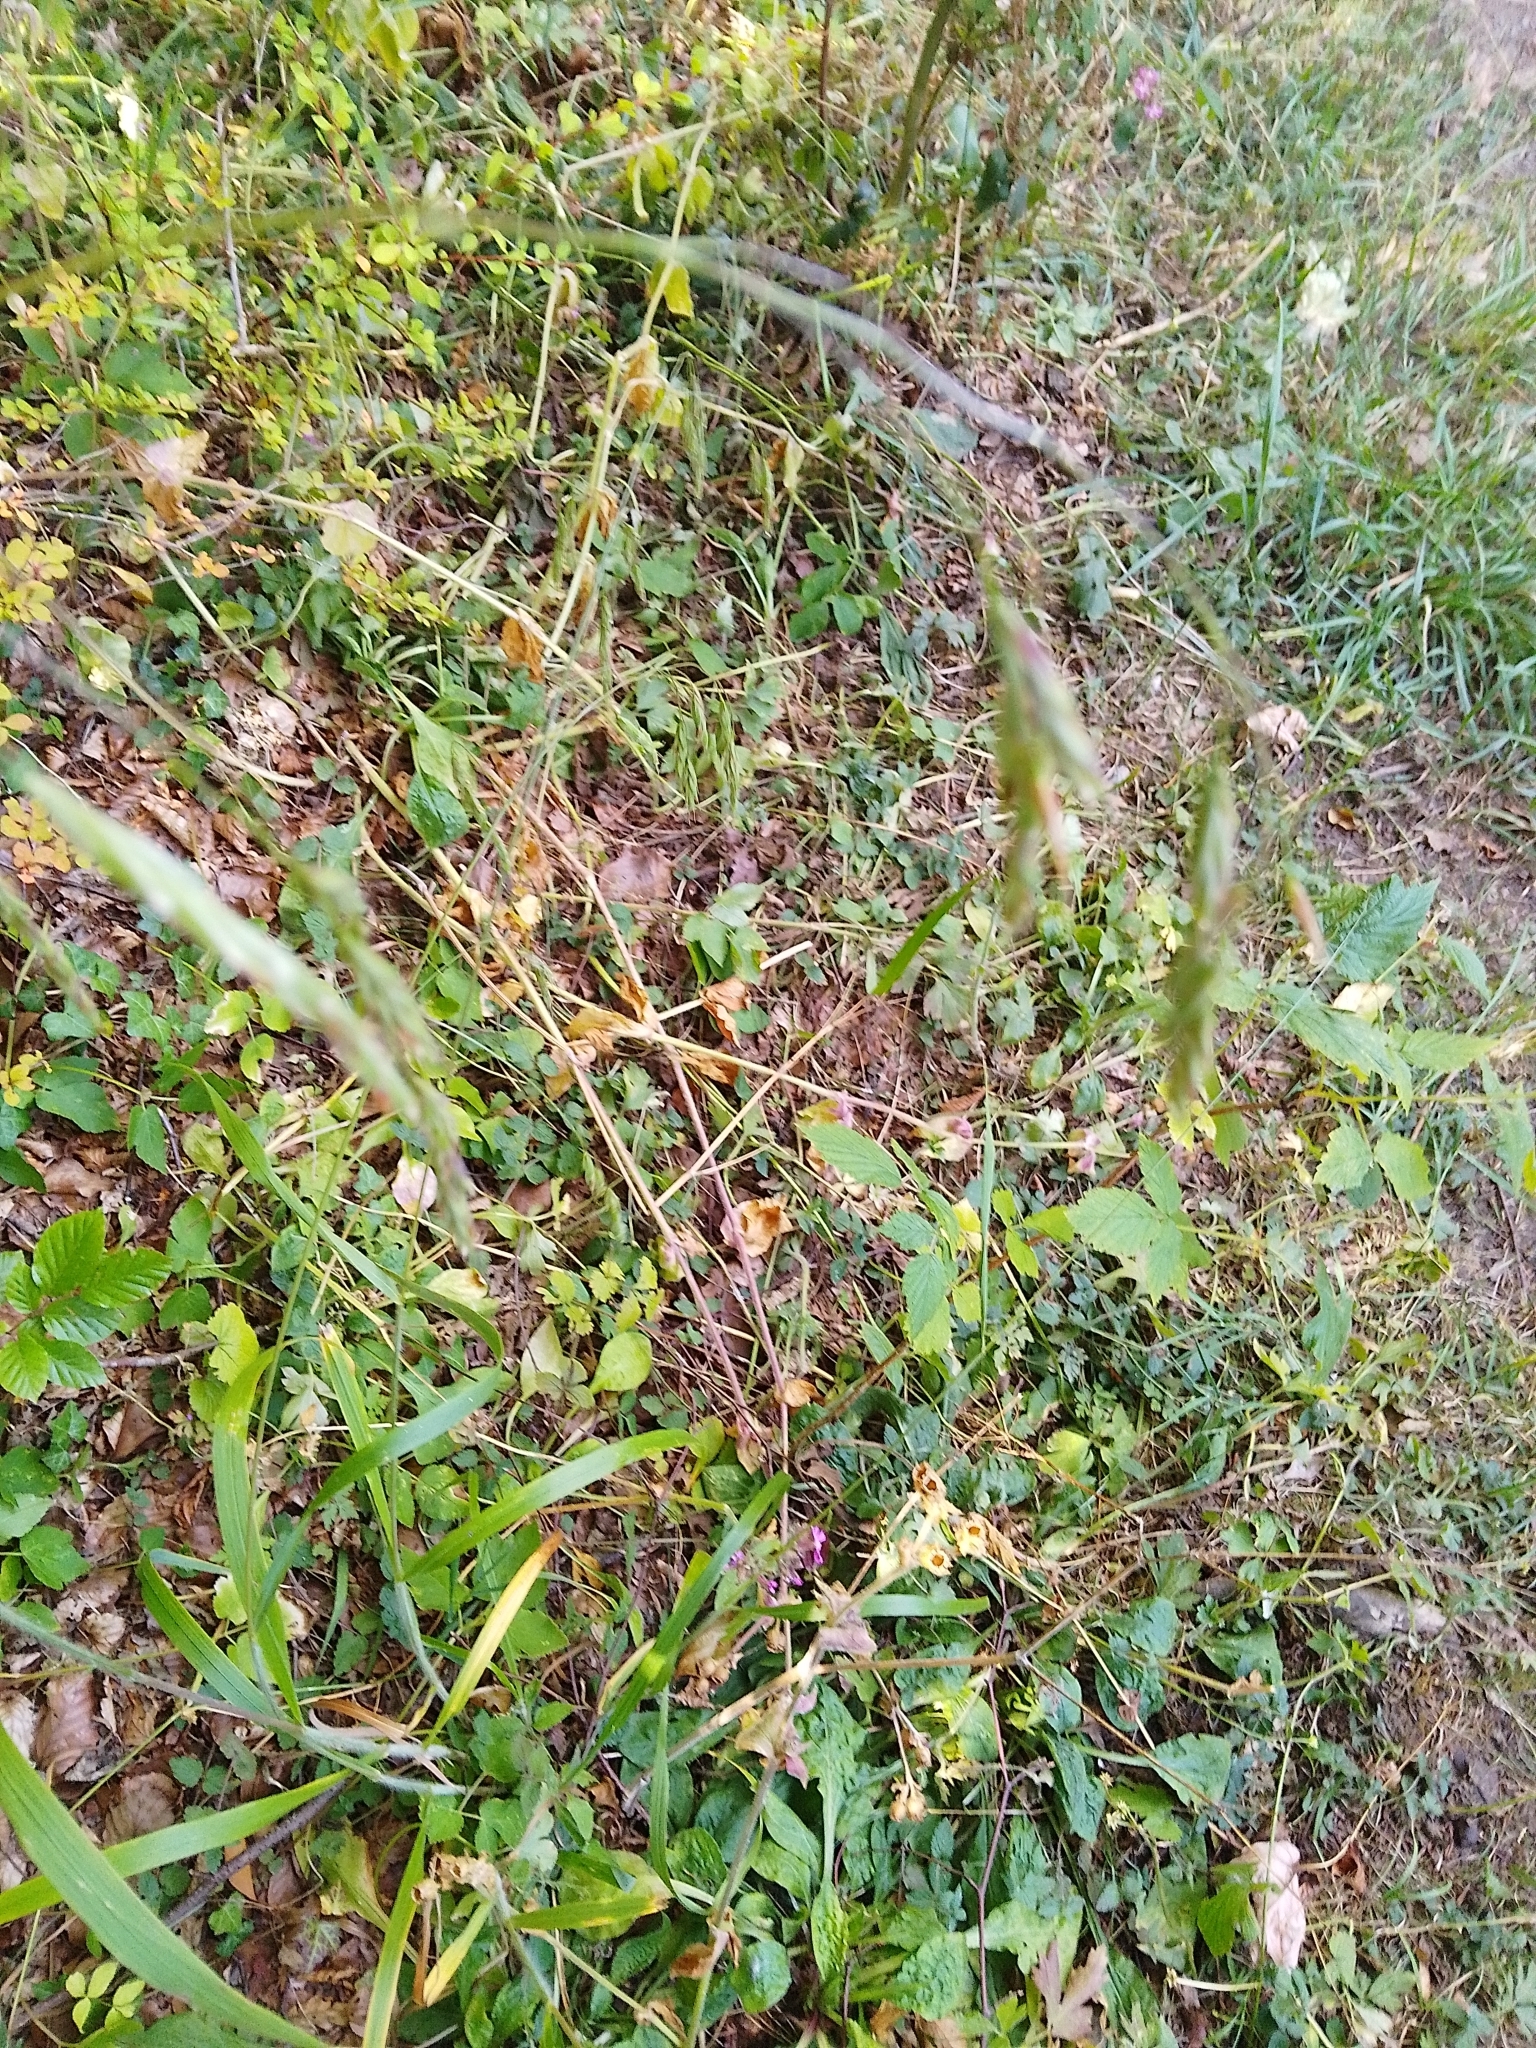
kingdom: Plantae
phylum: Tracheophyta
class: Liliopsida
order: Poales
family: Poaceae
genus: Bromus
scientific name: Bromus ramosus
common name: Hairy brome
